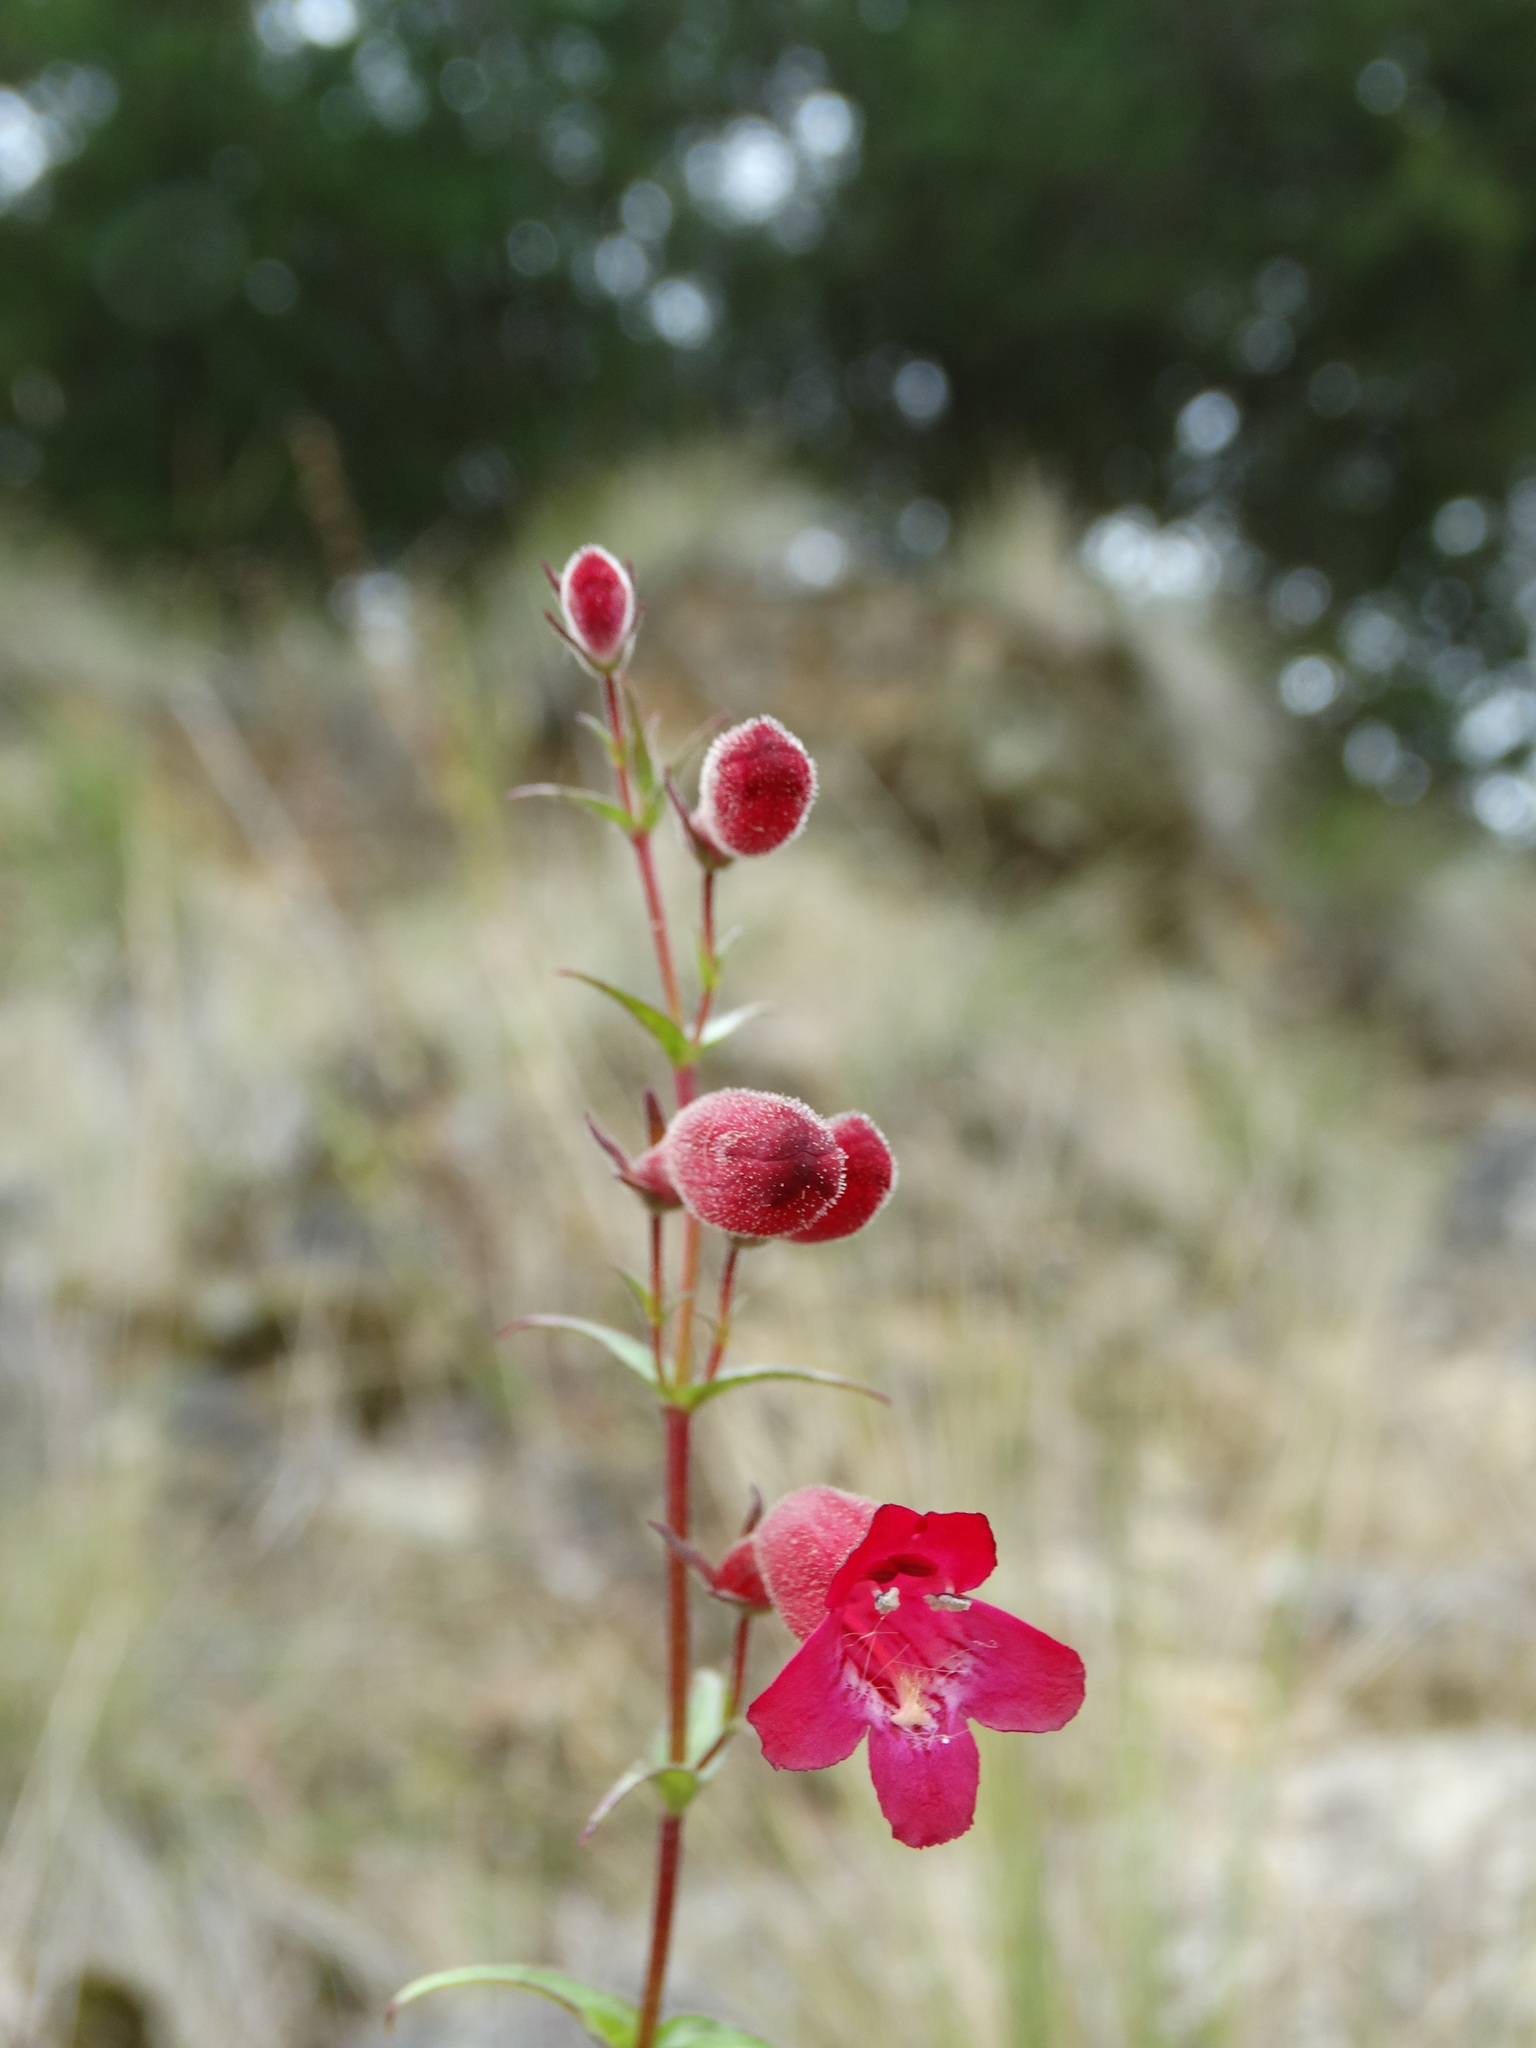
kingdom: Plantae
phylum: Tracheophyta
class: Magnoliopsida
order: Lamiales
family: Plantaginaceae
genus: Penstemon
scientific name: Penstemon roseus
